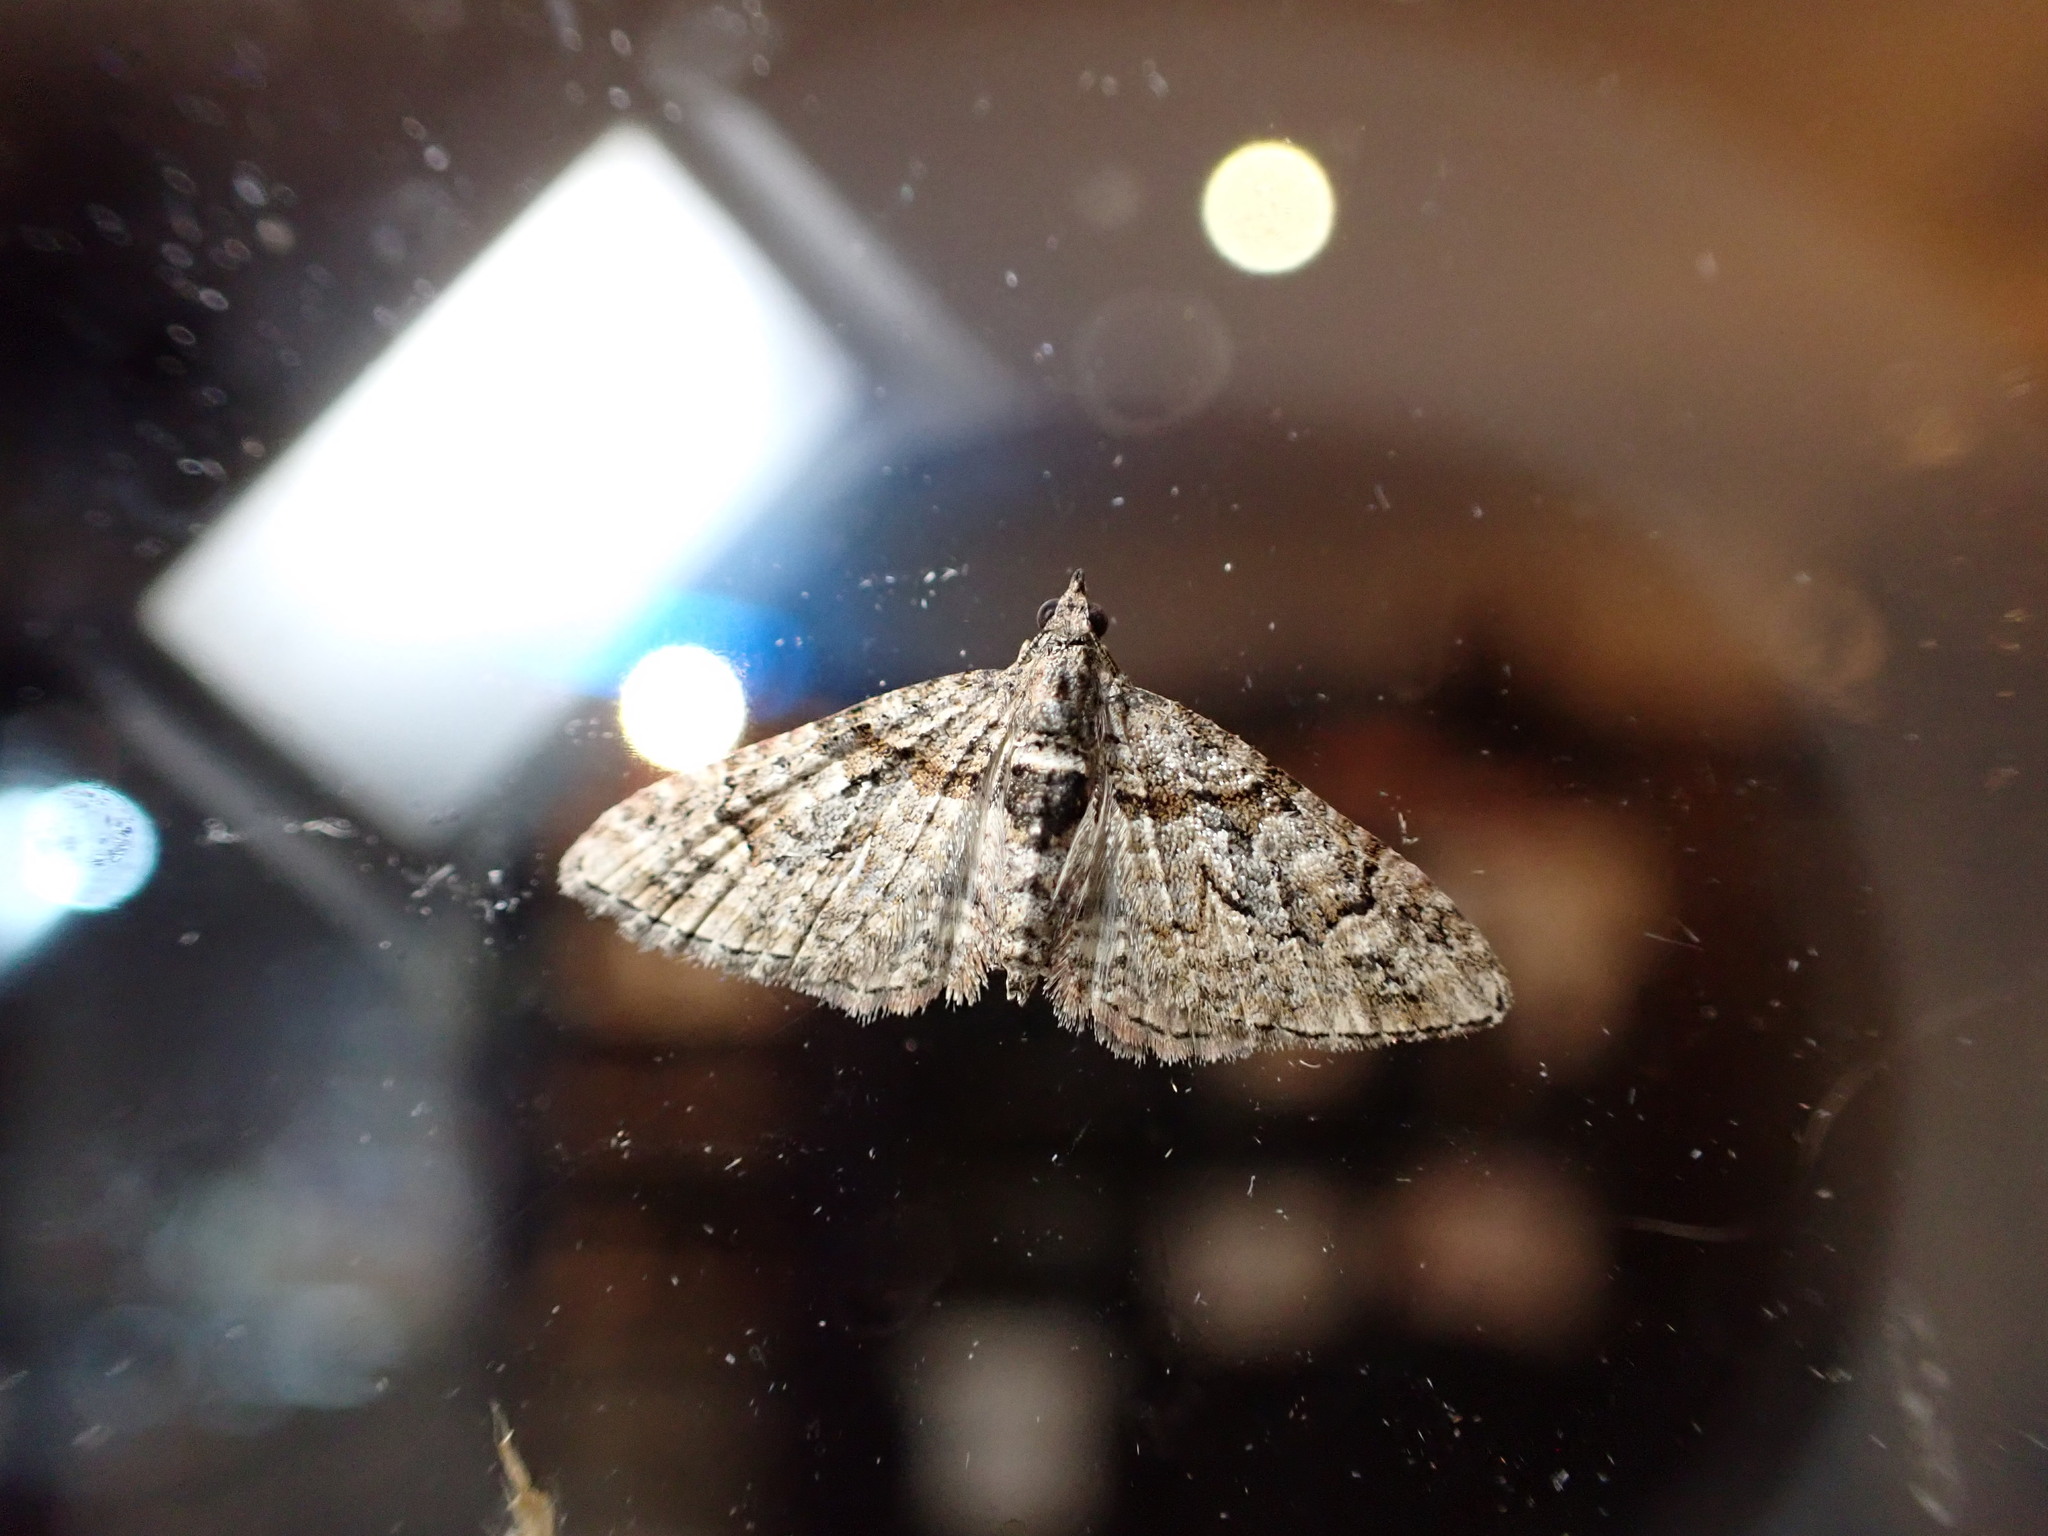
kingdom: Animalia
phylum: Arthropoda
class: Insecta
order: Lepidoptera
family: Geometridae
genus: Phrissogonus
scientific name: Phrissogonus laticostata
